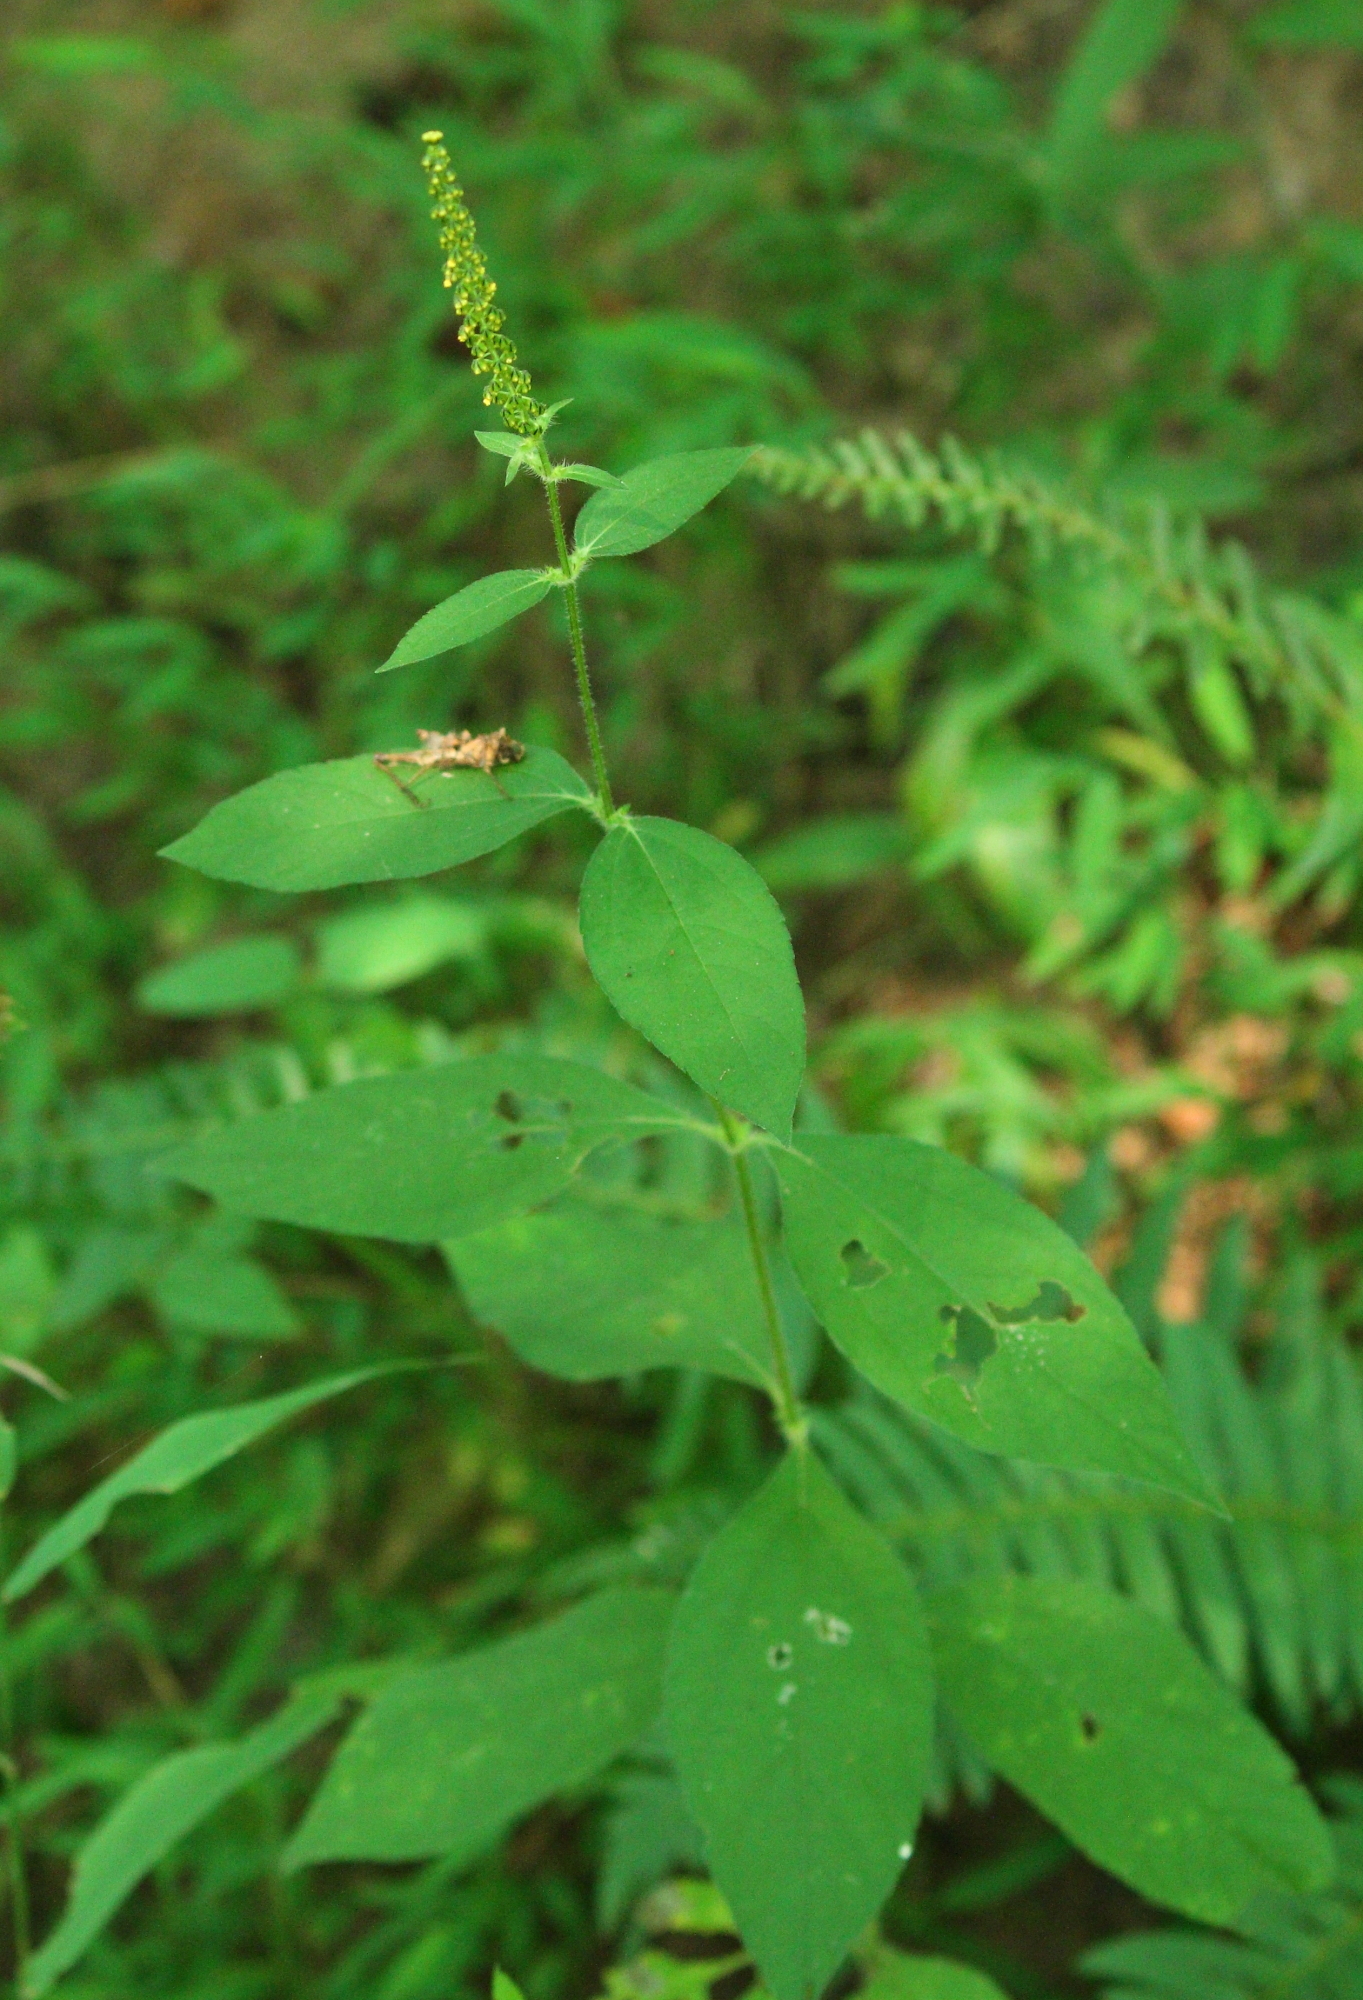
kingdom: Plantae
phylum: Tracheophyta
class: Magnoliopsida
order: Asterales
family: Asteraceae
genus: Ambrosia
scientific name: Ambrosia trifida
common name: Giant ragweed
